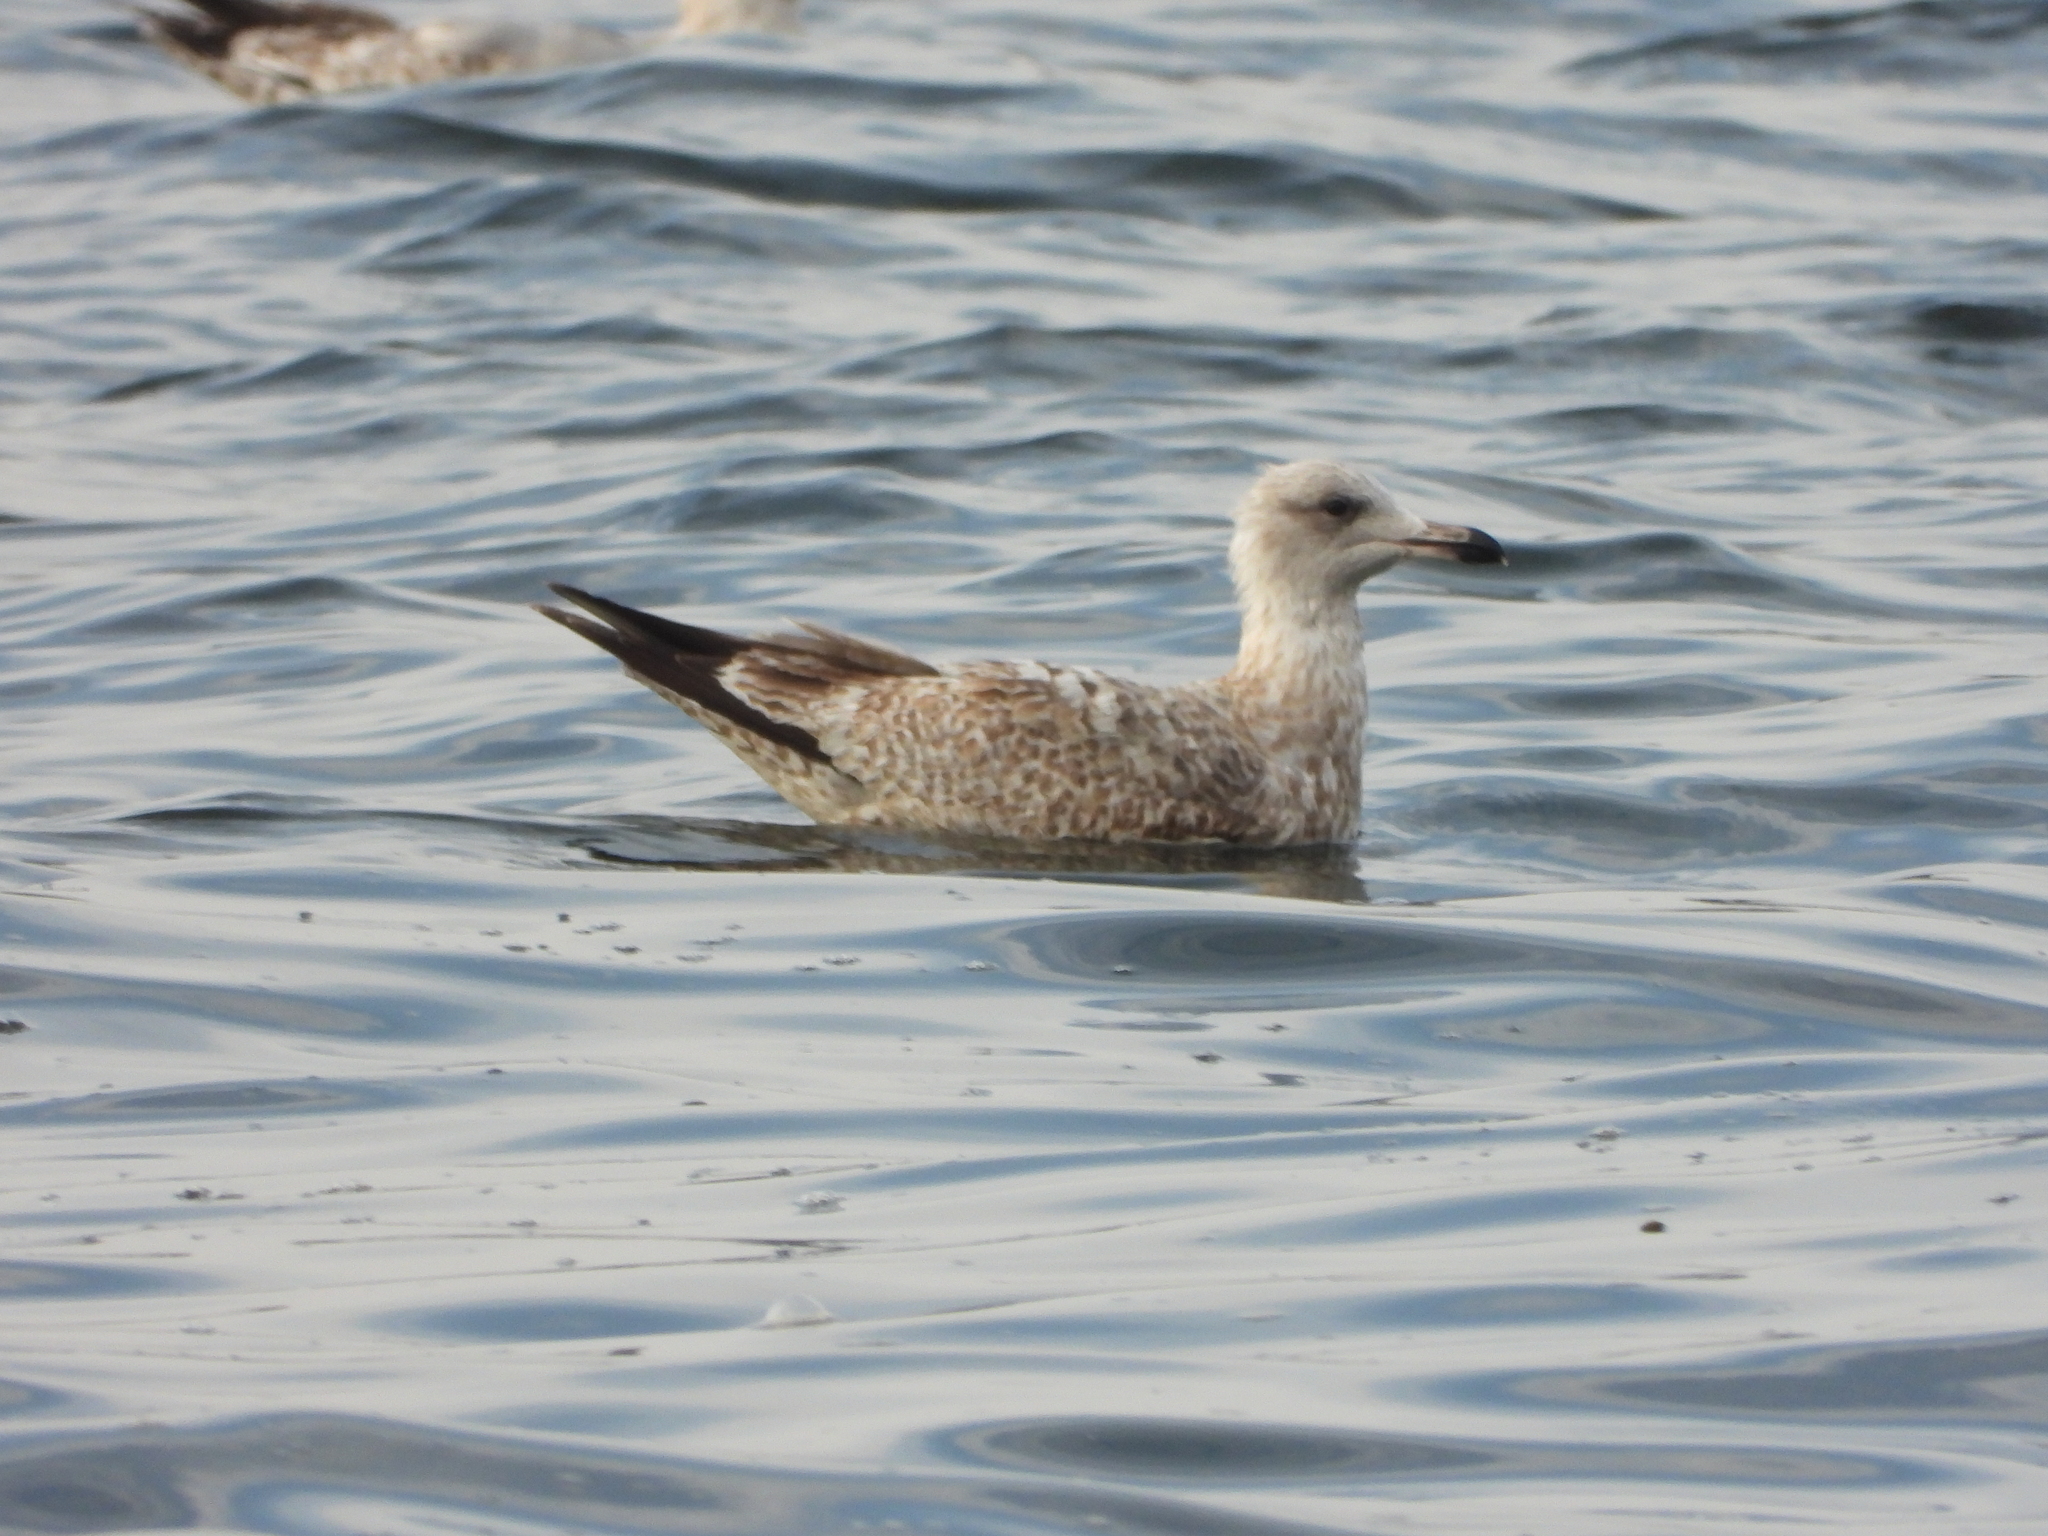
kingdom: Animalia
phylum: Chordata
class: Aves
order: Charadriiformes
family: Laridae
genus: Larus
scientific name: Larus argentatus
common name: Herring gull
